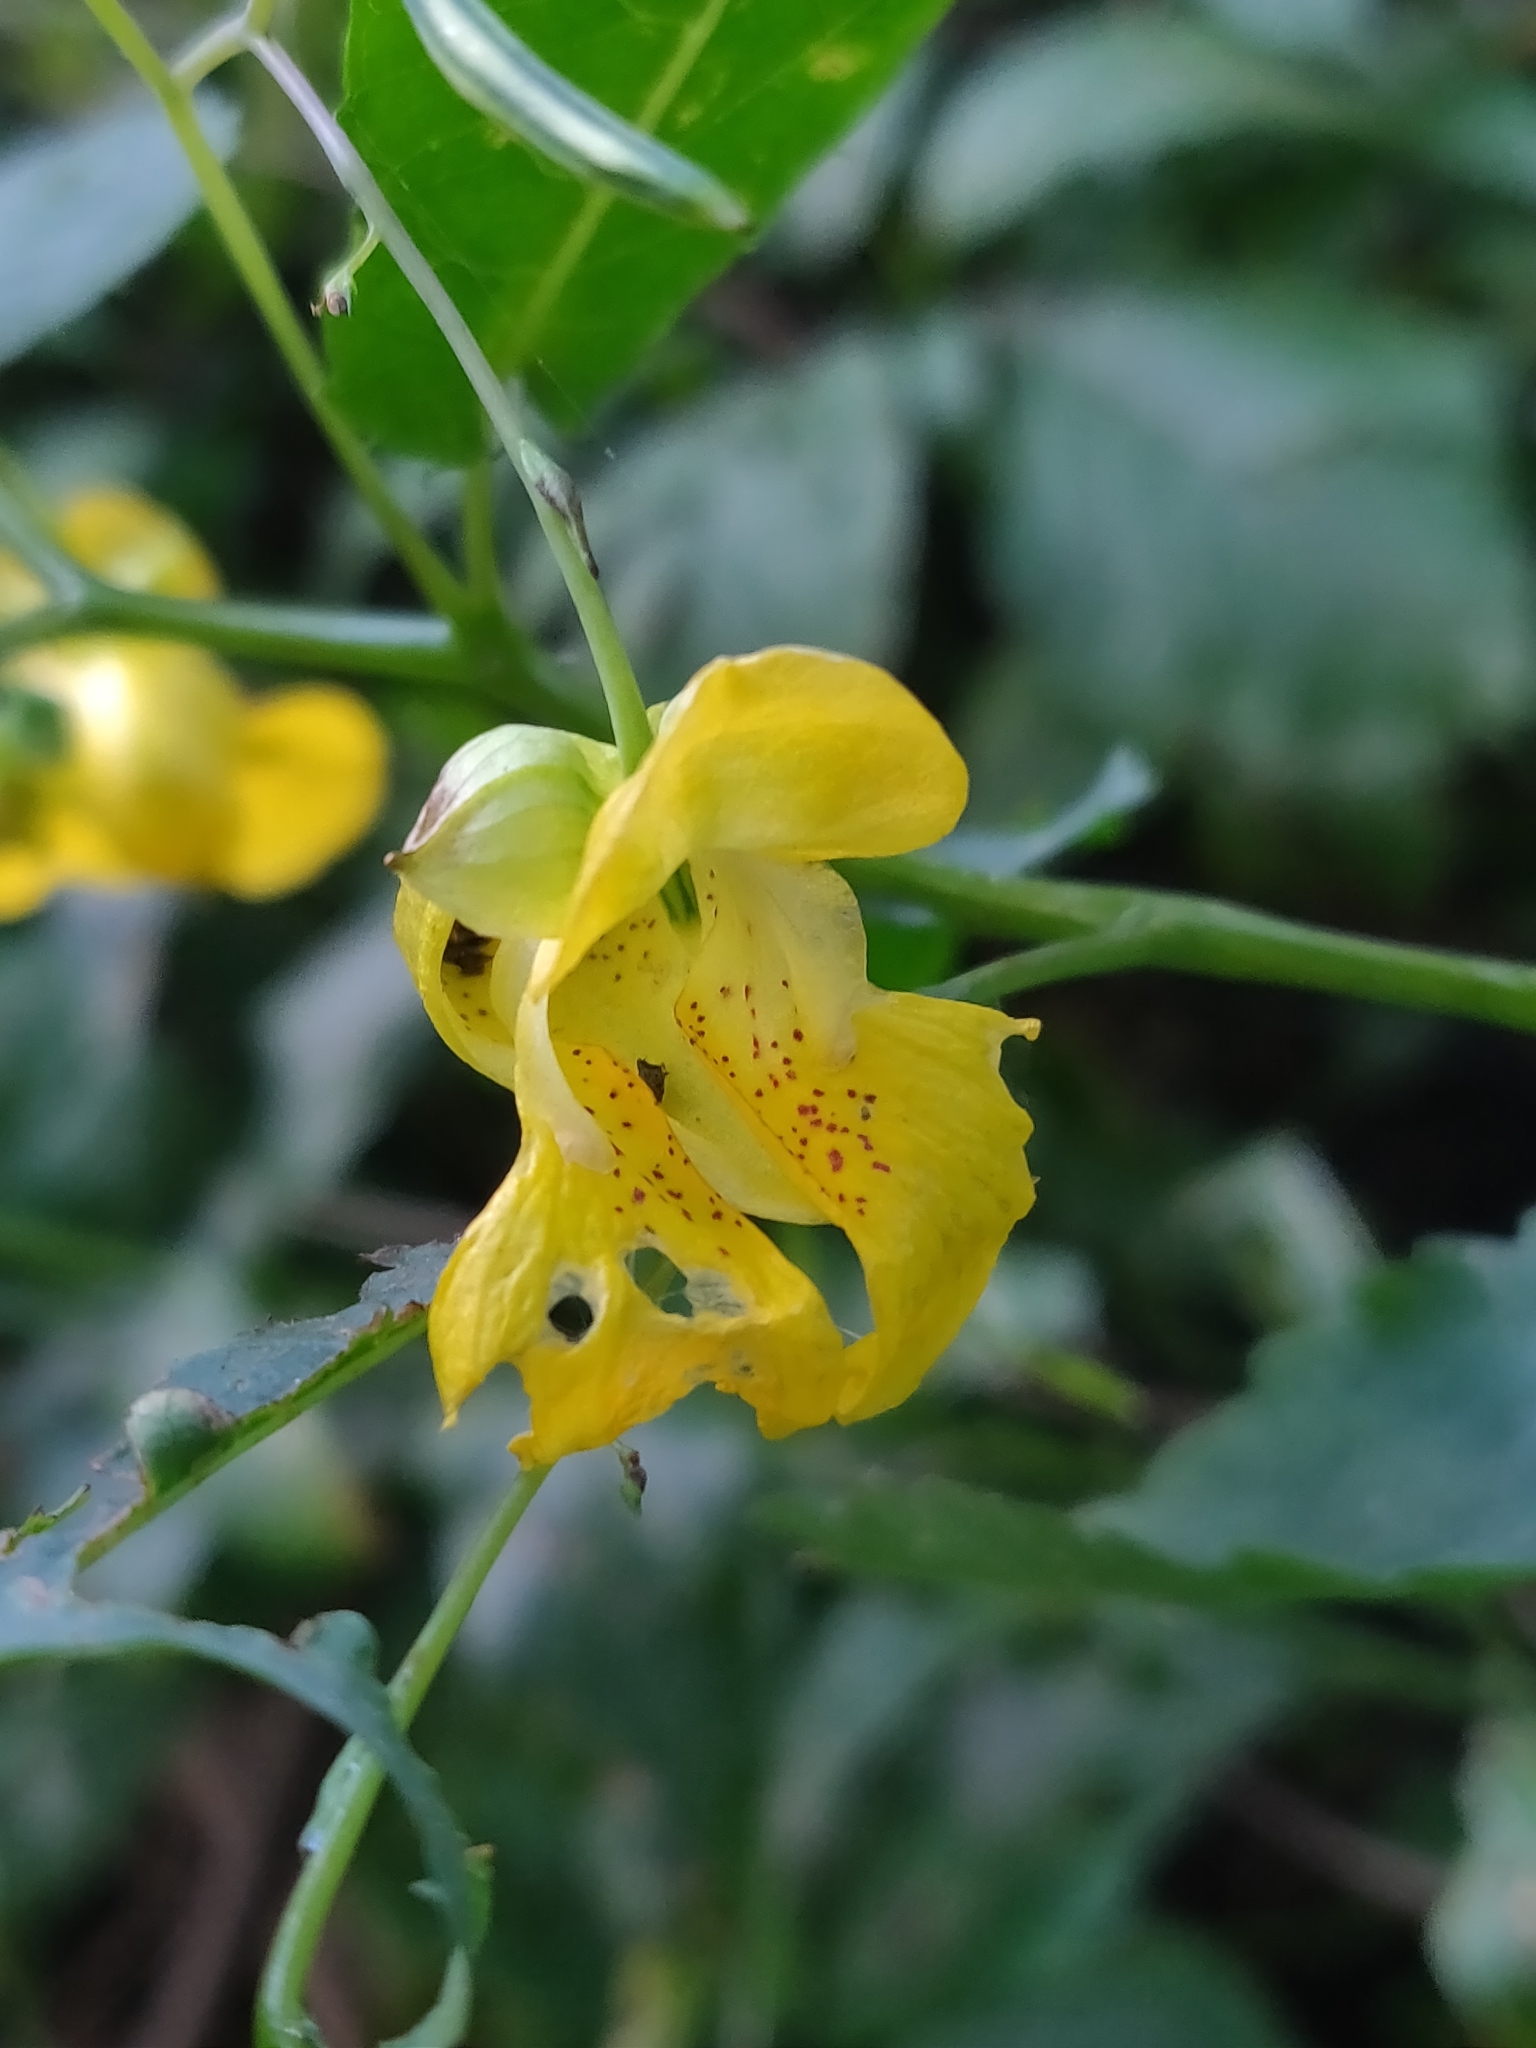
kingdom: Plantae
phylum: Tracheophyta
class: Magnoliopsida
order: Ericales
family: Balsaminaceae
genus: Impatiens
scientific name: Impatiens pallida
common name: Pale snapweed
